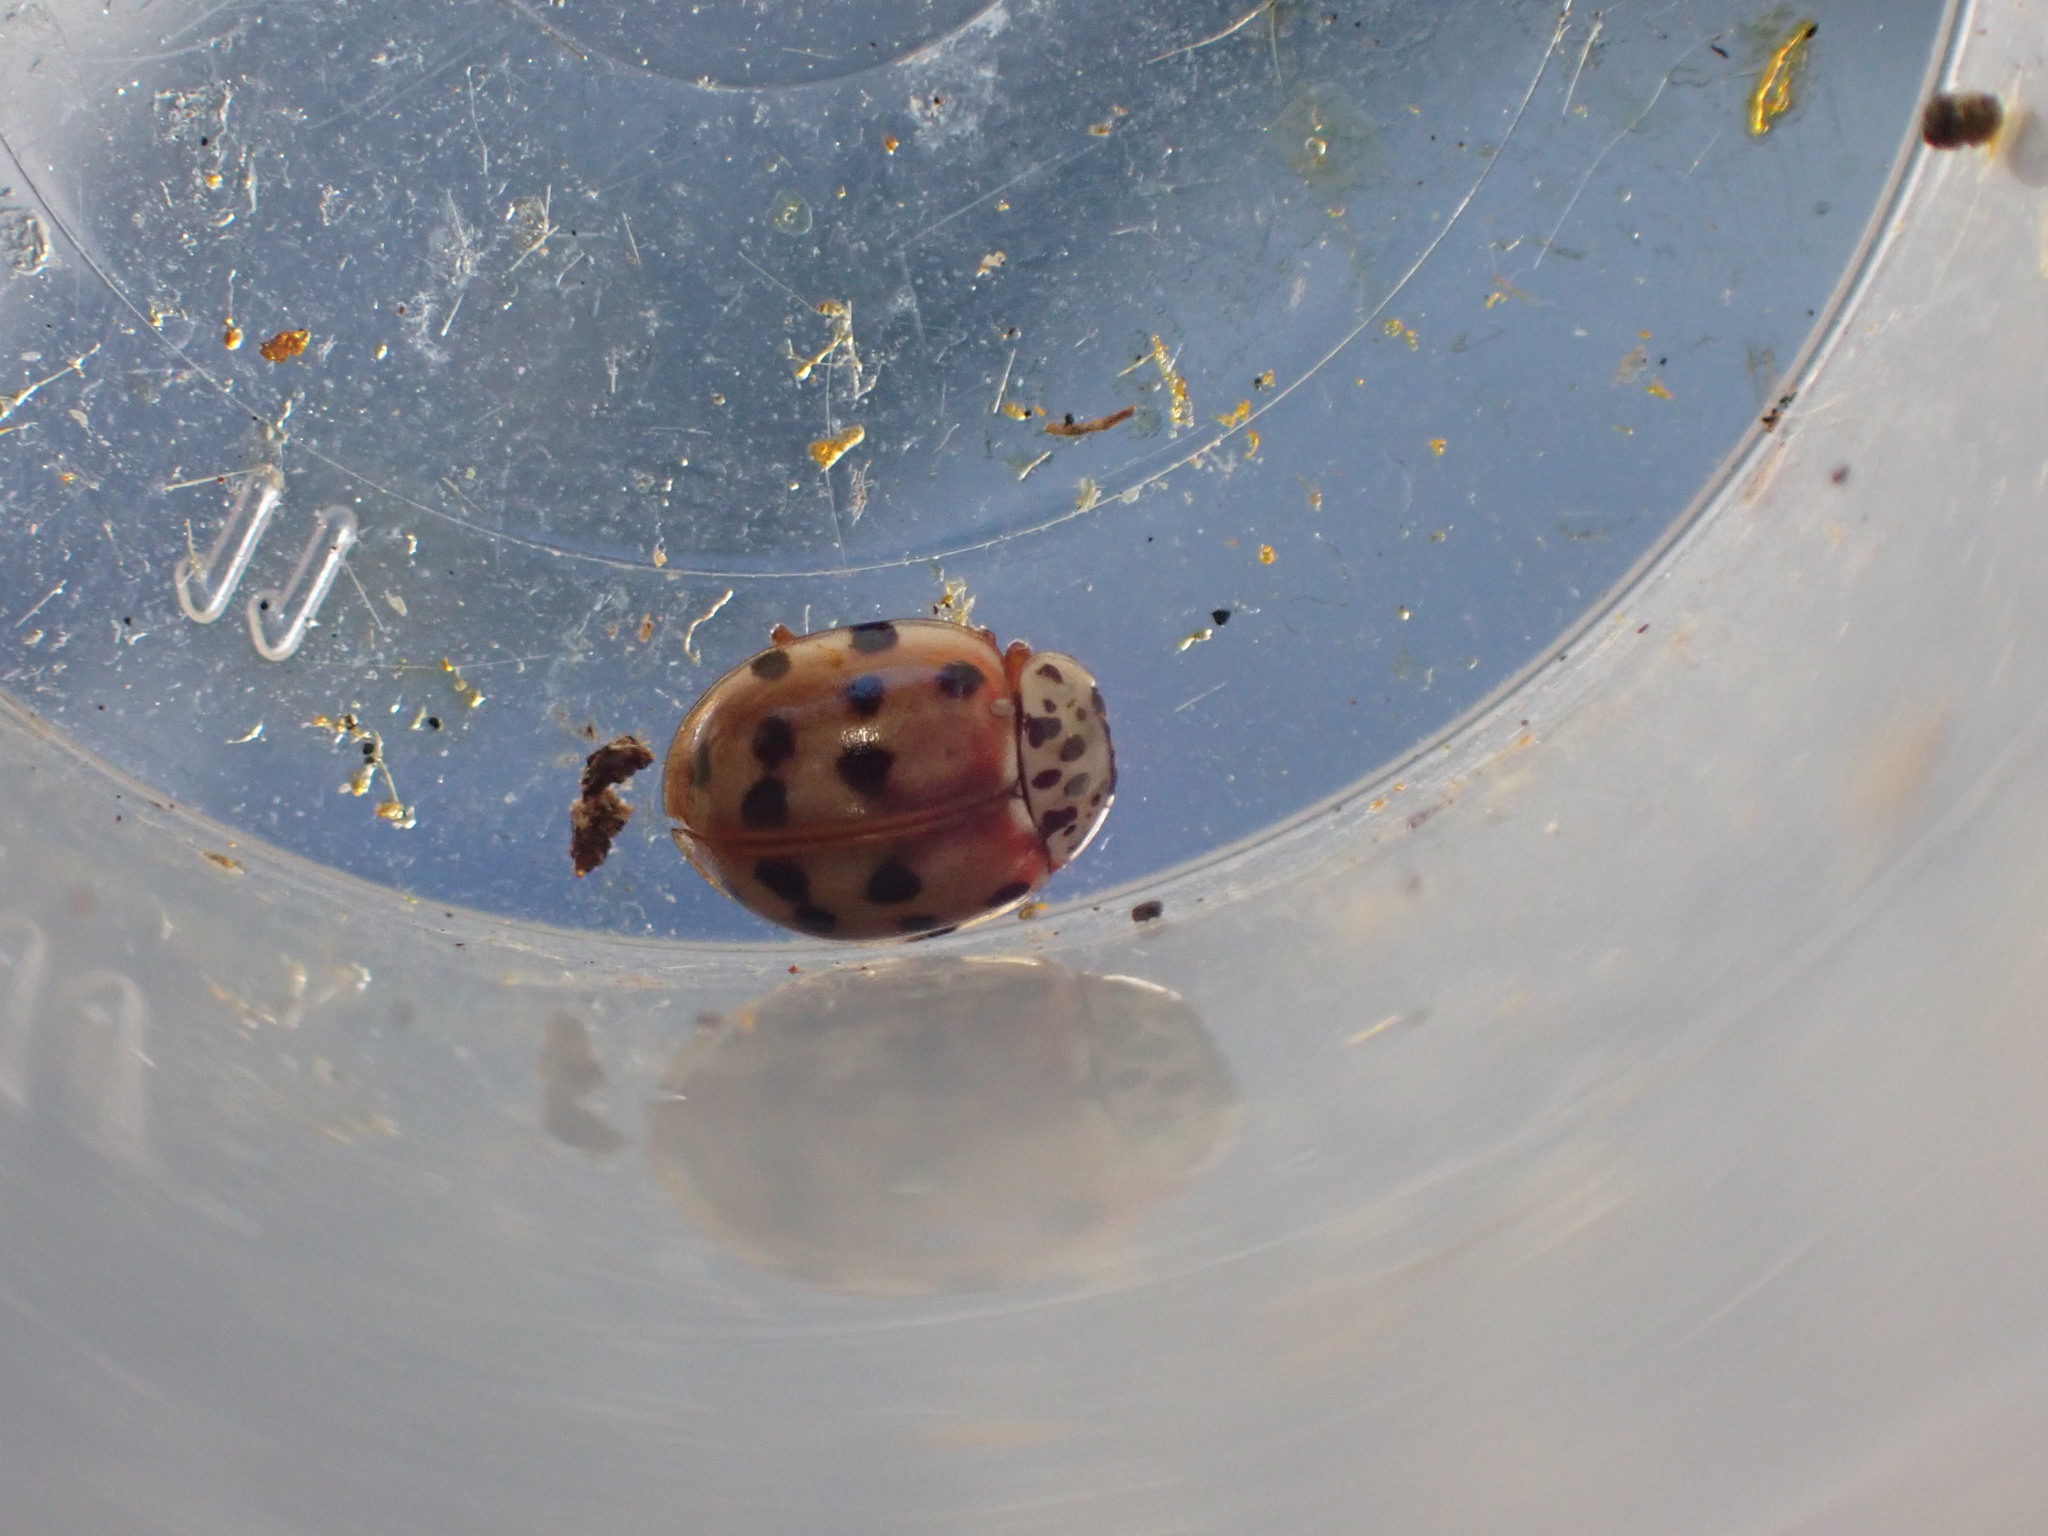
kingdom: Animalia
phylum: Arthropoda
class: Insecta
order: Coleoptera
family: Coccinellidae
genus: Harmonia
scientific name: Harmonia quadripunctata
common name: Cream-streaked ladybird
